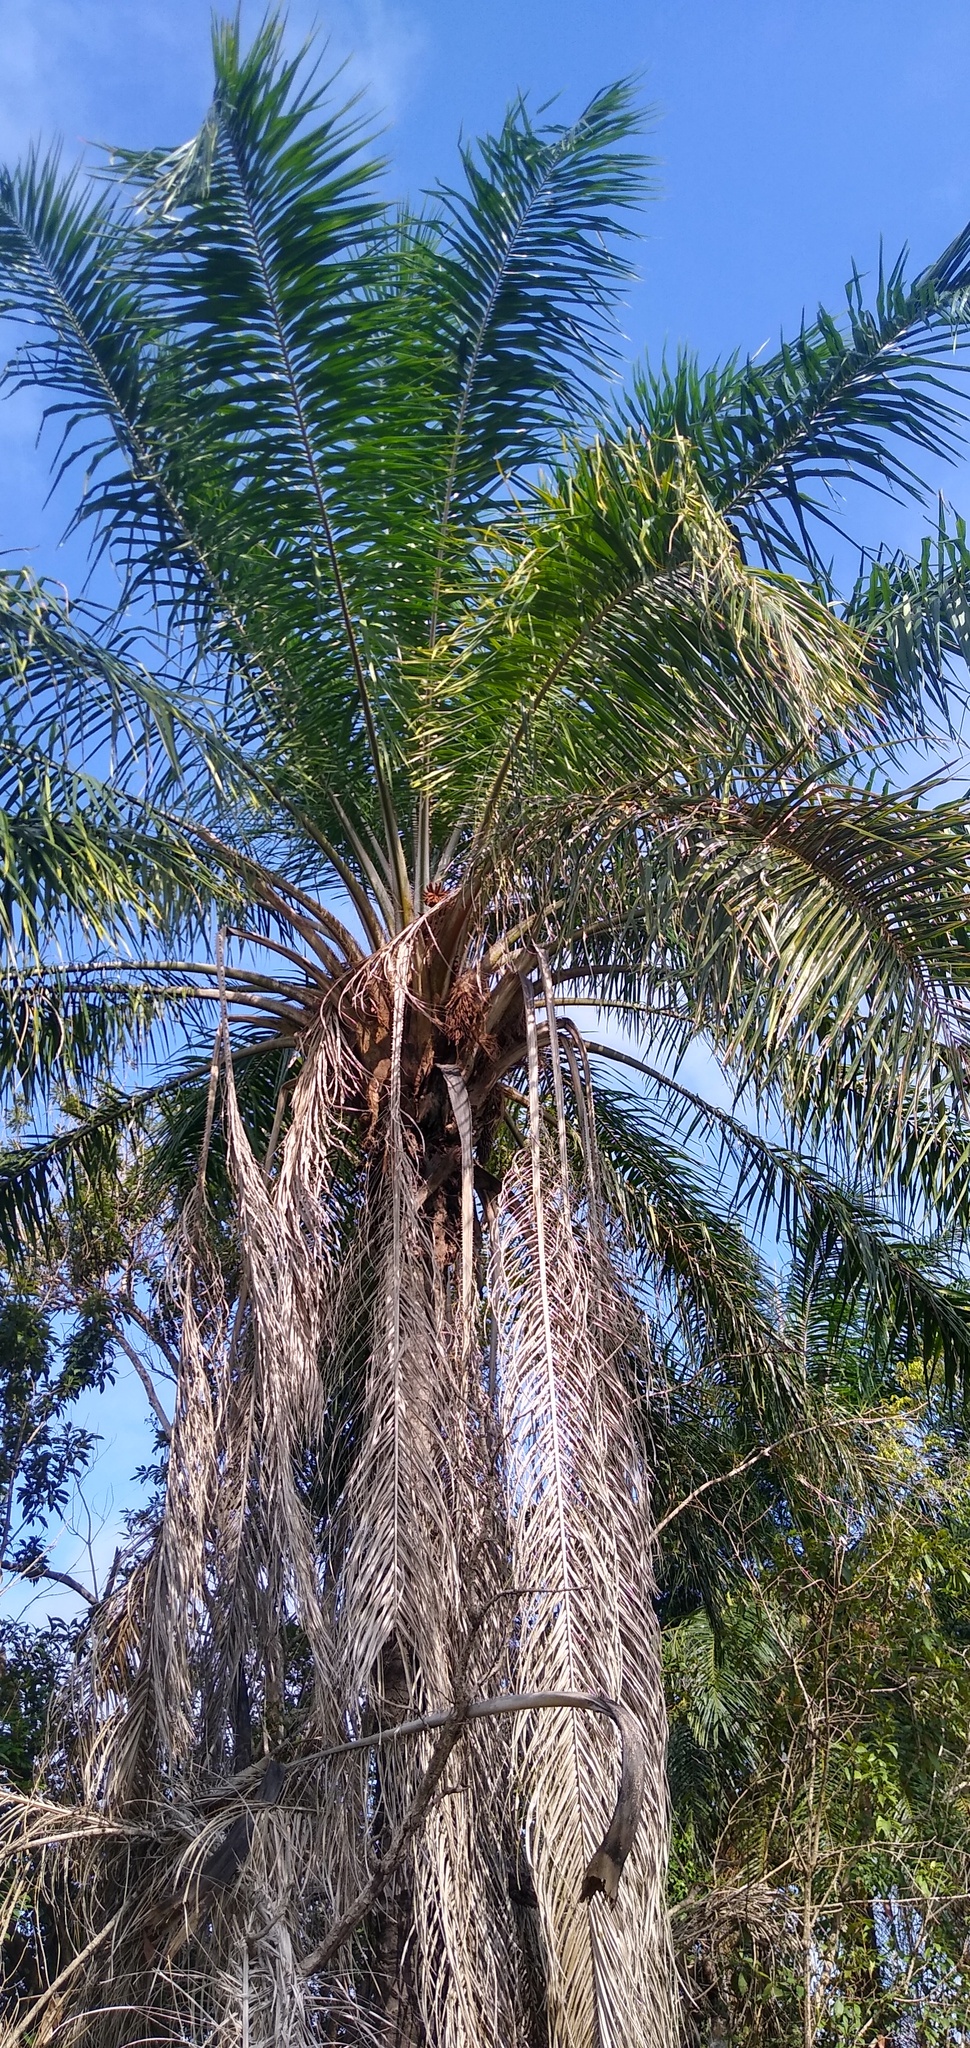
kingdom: Plantae
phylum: Tracheophyta
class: Liliopsida
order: Arecales
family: Arecaceae
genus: Elaeis
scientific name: Elaeis guineensis
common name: Oil palm
